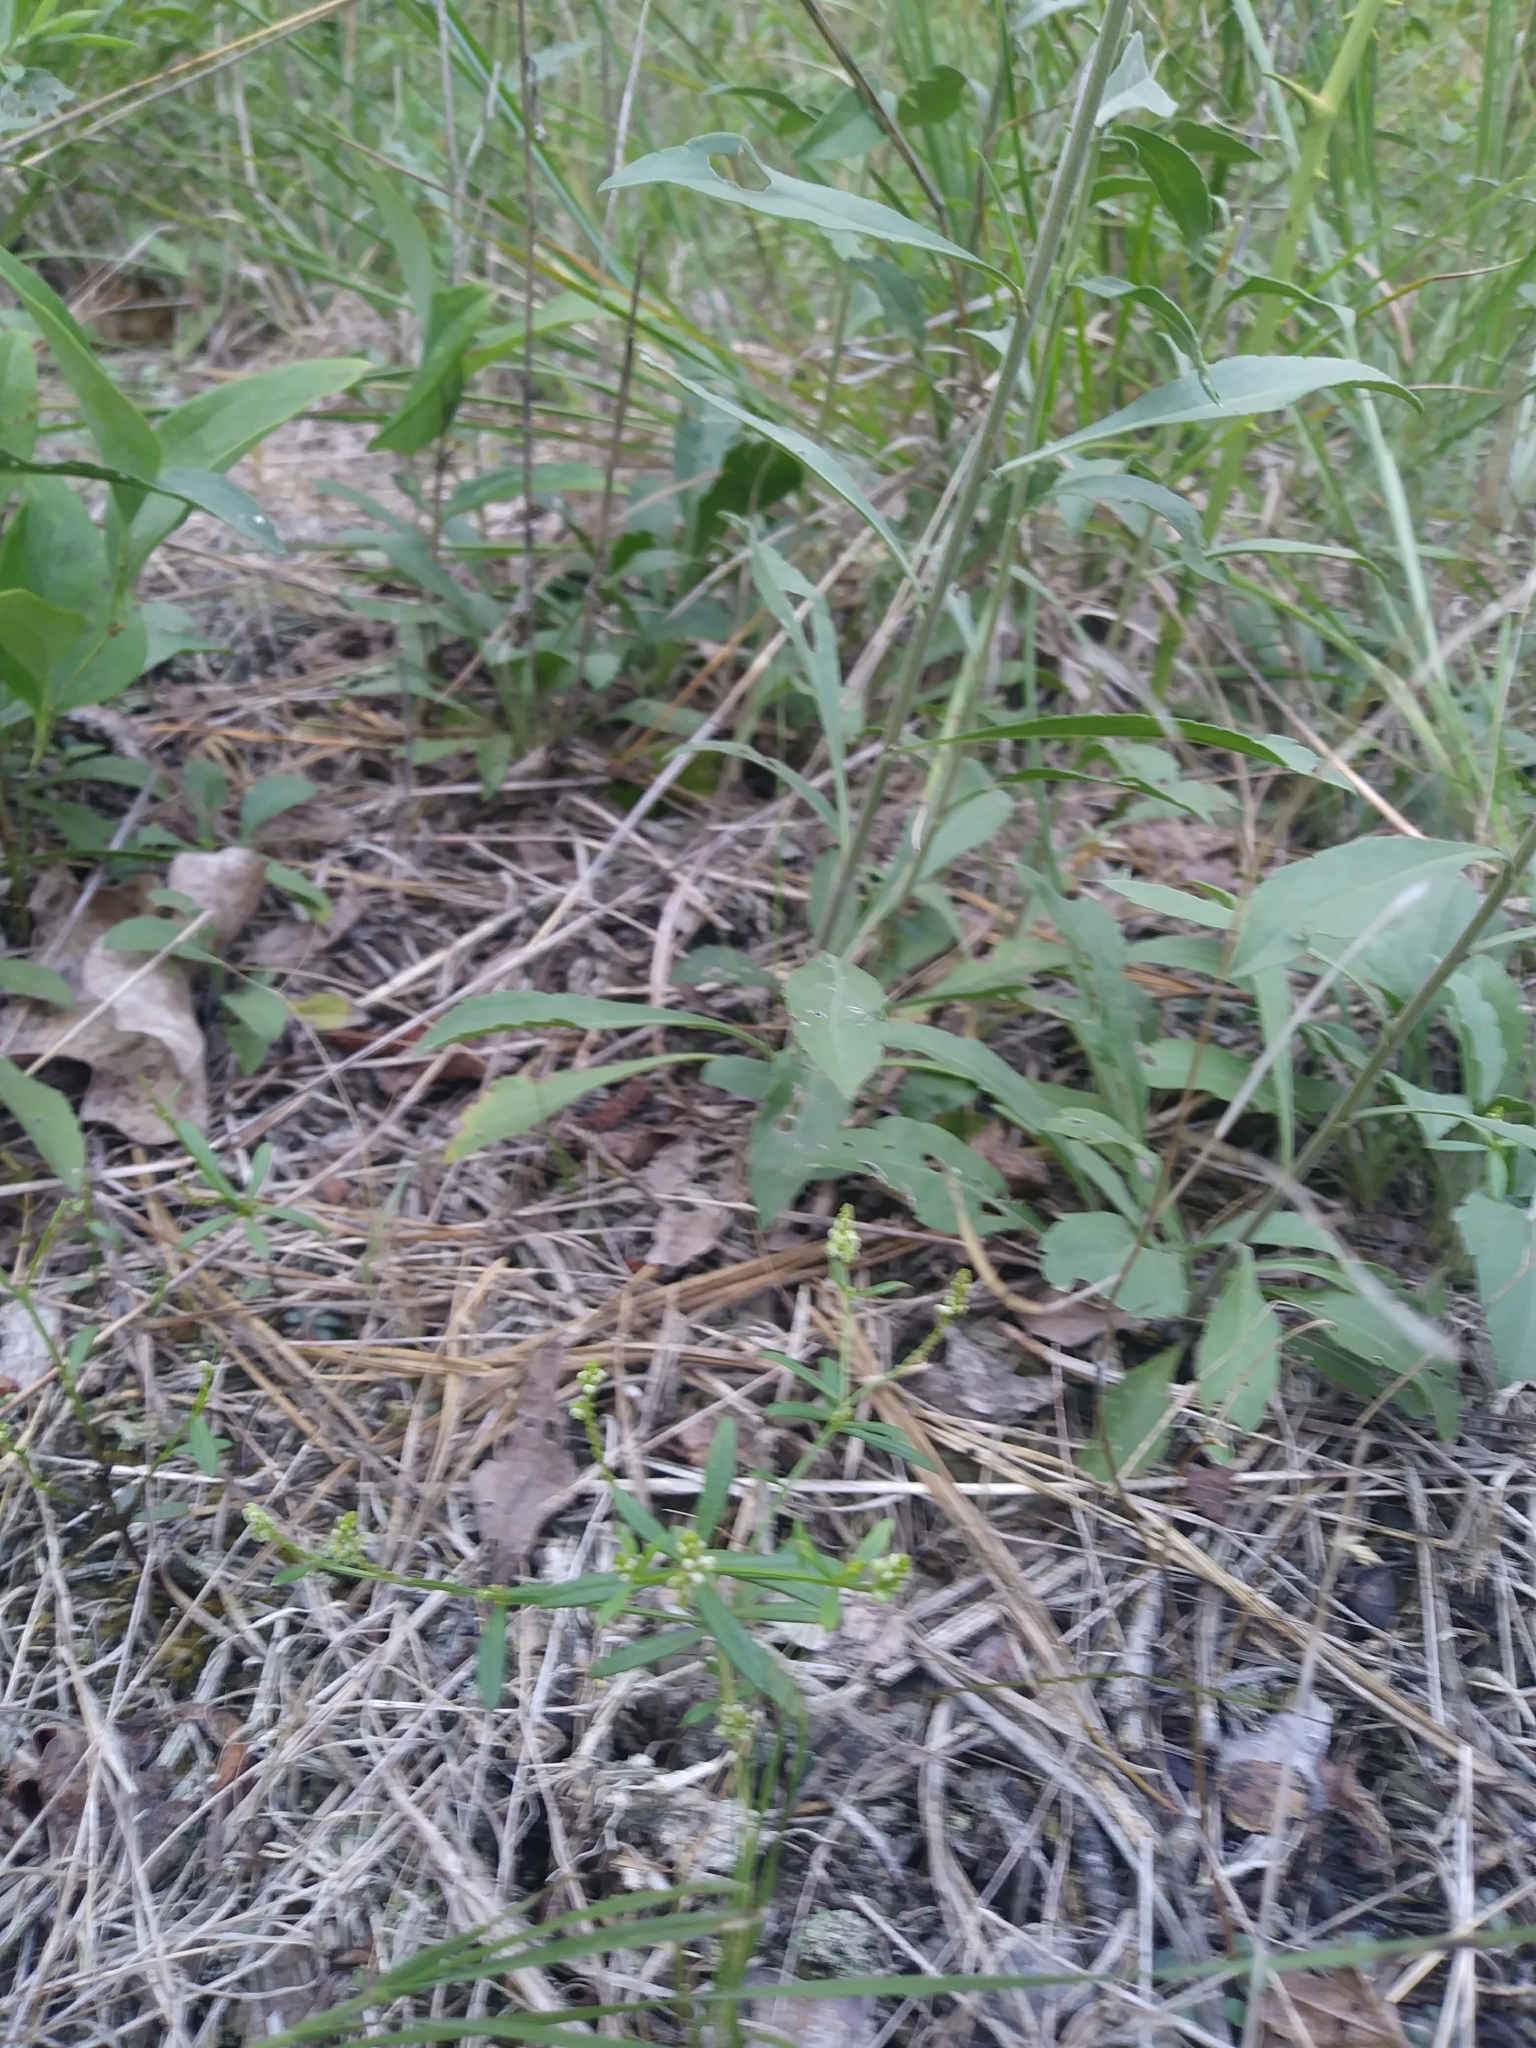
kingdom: Plantae
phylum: Tracheophyta
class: Magnoliopsida
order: Fabales
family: Polygalaceae
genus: Polygala
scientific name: Polygala verticillata
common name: Whorl milkwort
